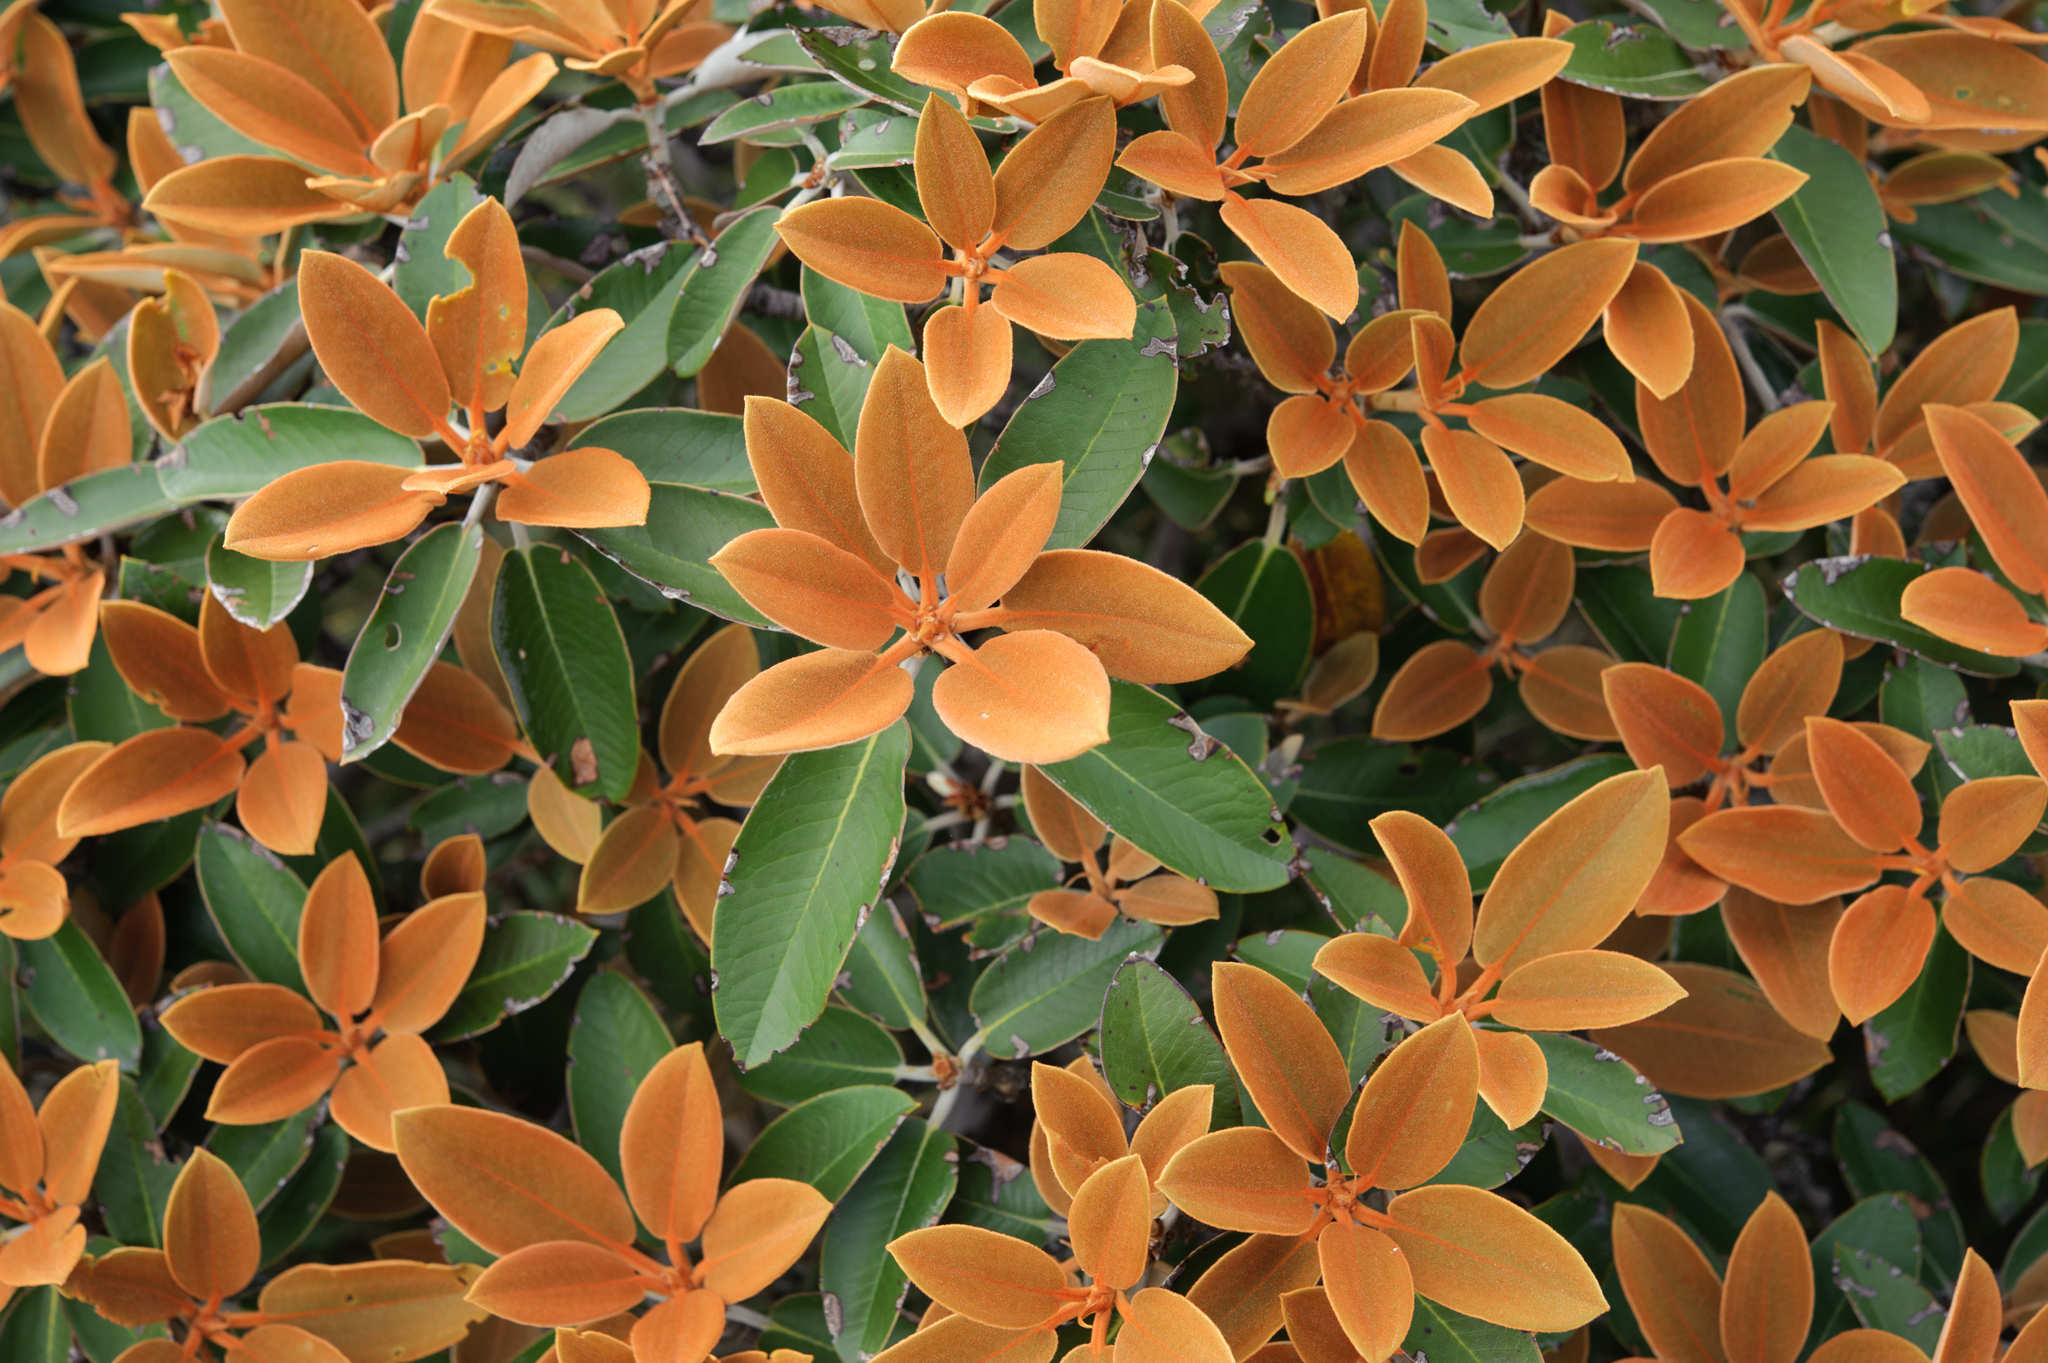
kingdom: Plantae
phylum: Tracheophyta
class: Magnoliopsida
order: Ericales
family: Ericaceae
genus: Rhododendron
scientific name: Rhododendron hyperythrum
